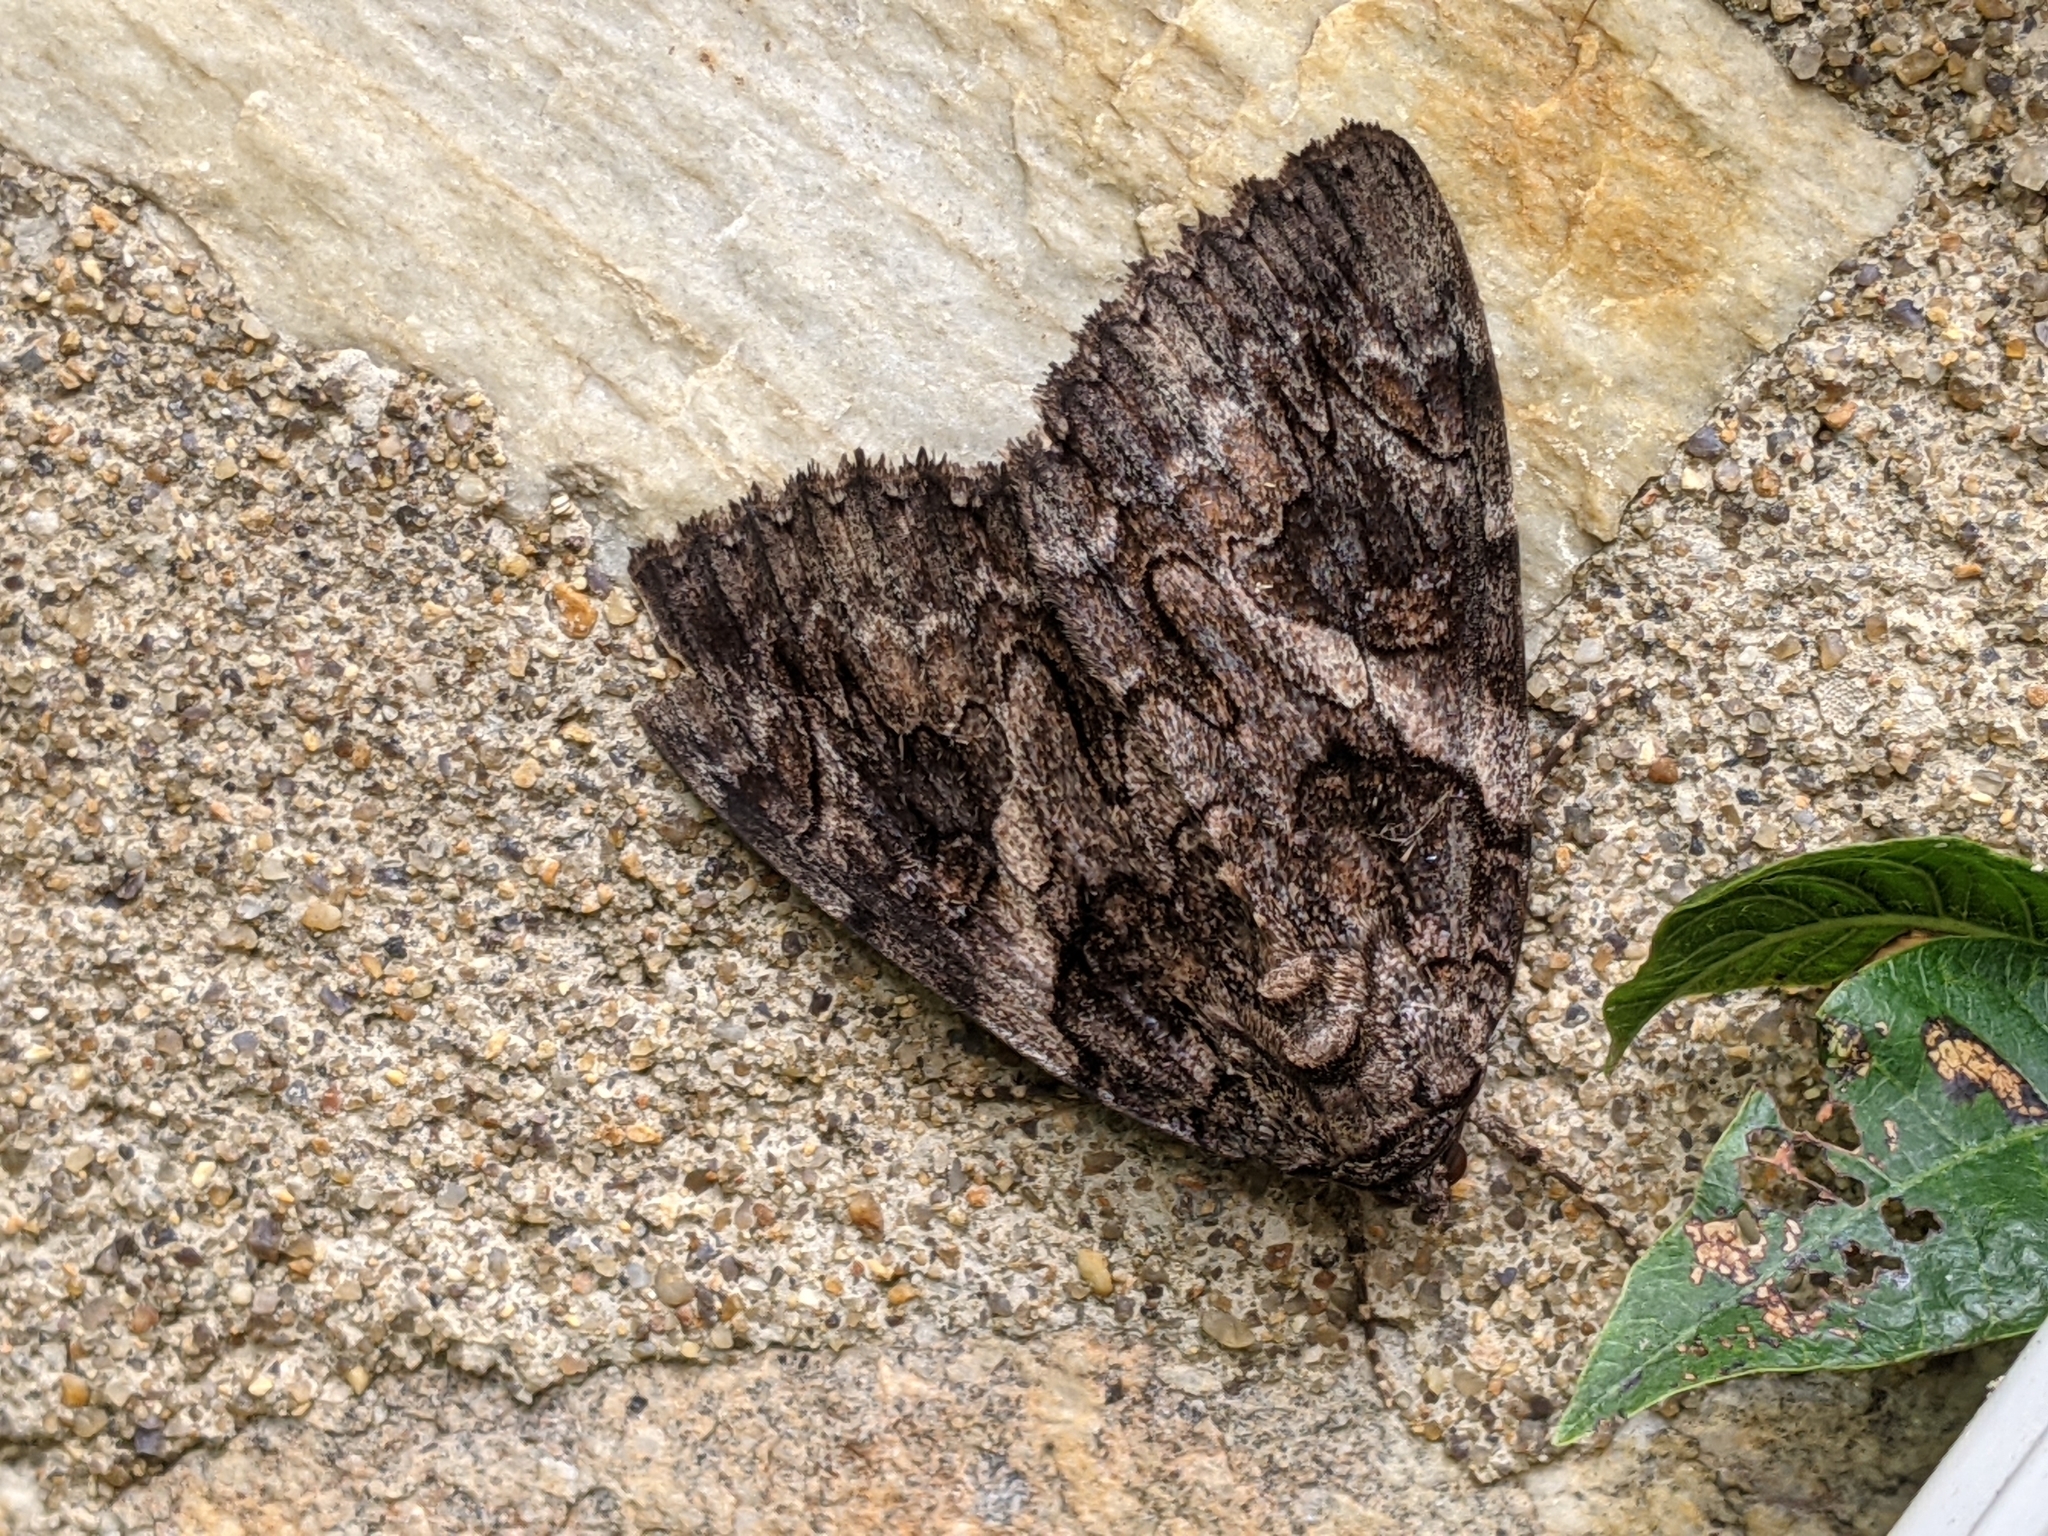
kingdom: Animalia
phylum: Arthropoda
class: Insecta
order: Lepidoptera
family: Erebidae
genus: Catocala
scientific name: Catocala piatrix
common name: The penitent underwing
